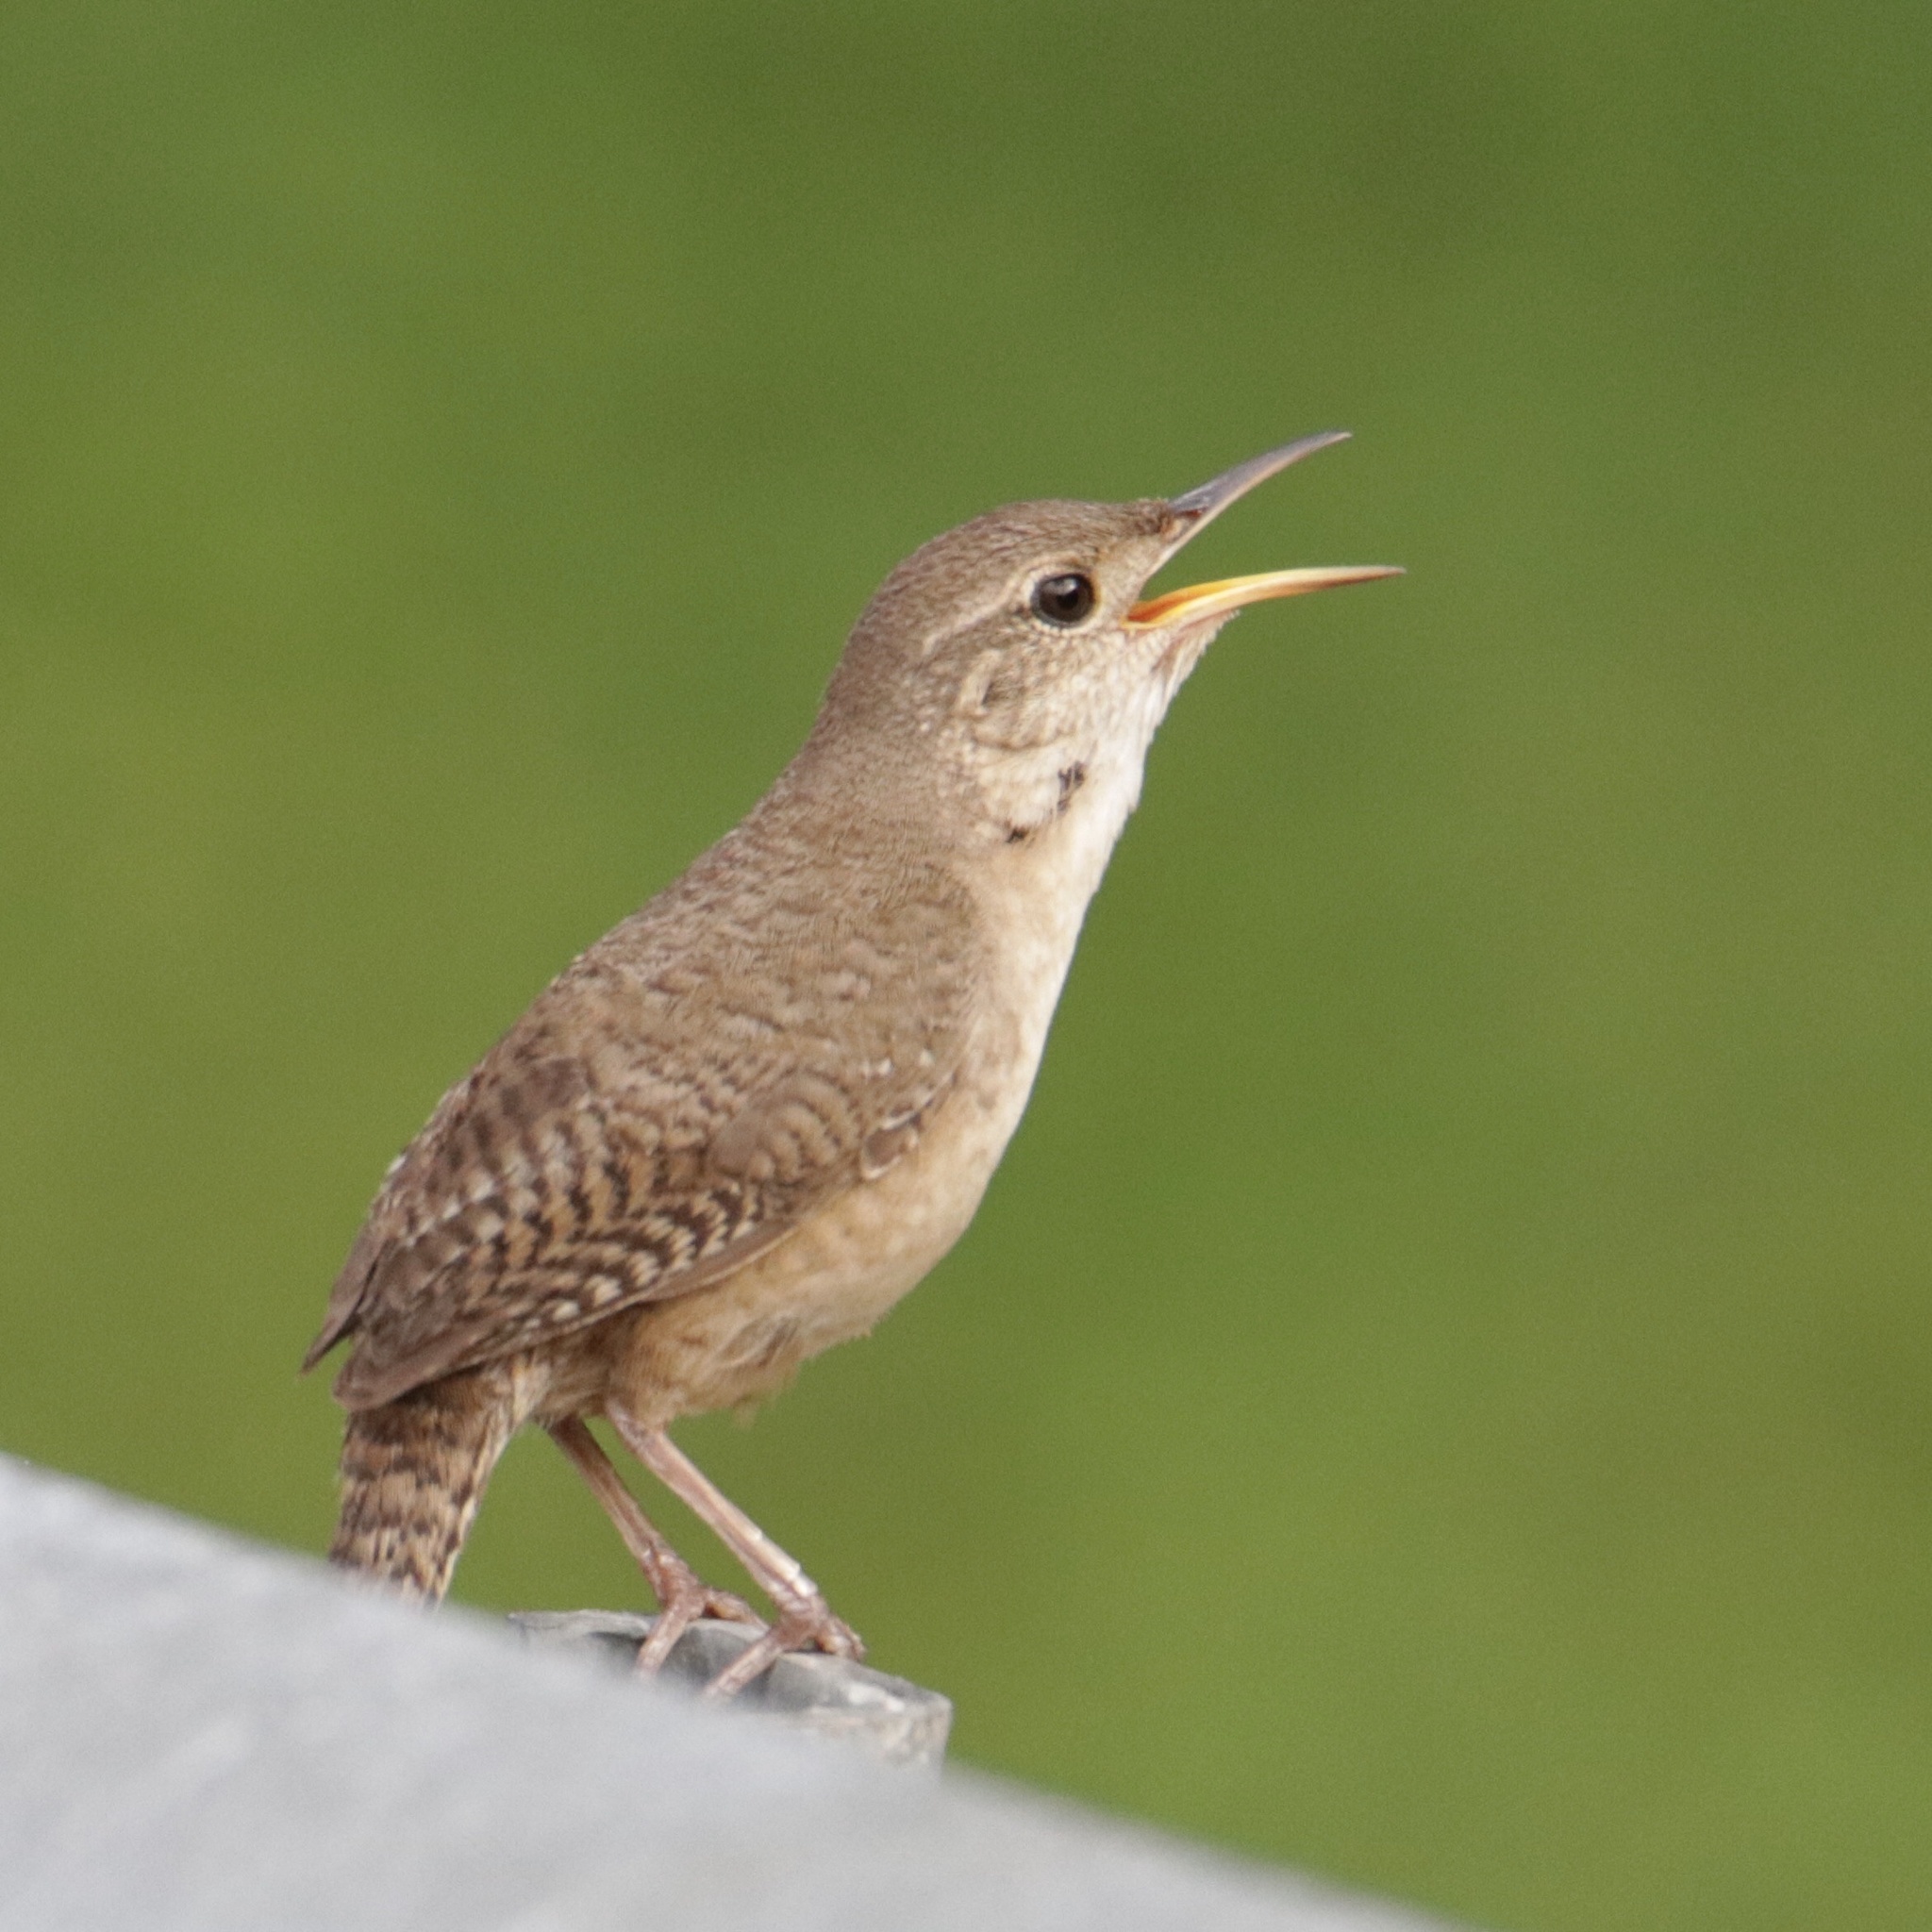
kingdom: Animalia
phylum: Chordata
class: Aves
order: Passeriformes
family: Troglodytidae
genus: Troglodytes
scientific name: Troglodytes aedon
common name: House wren
